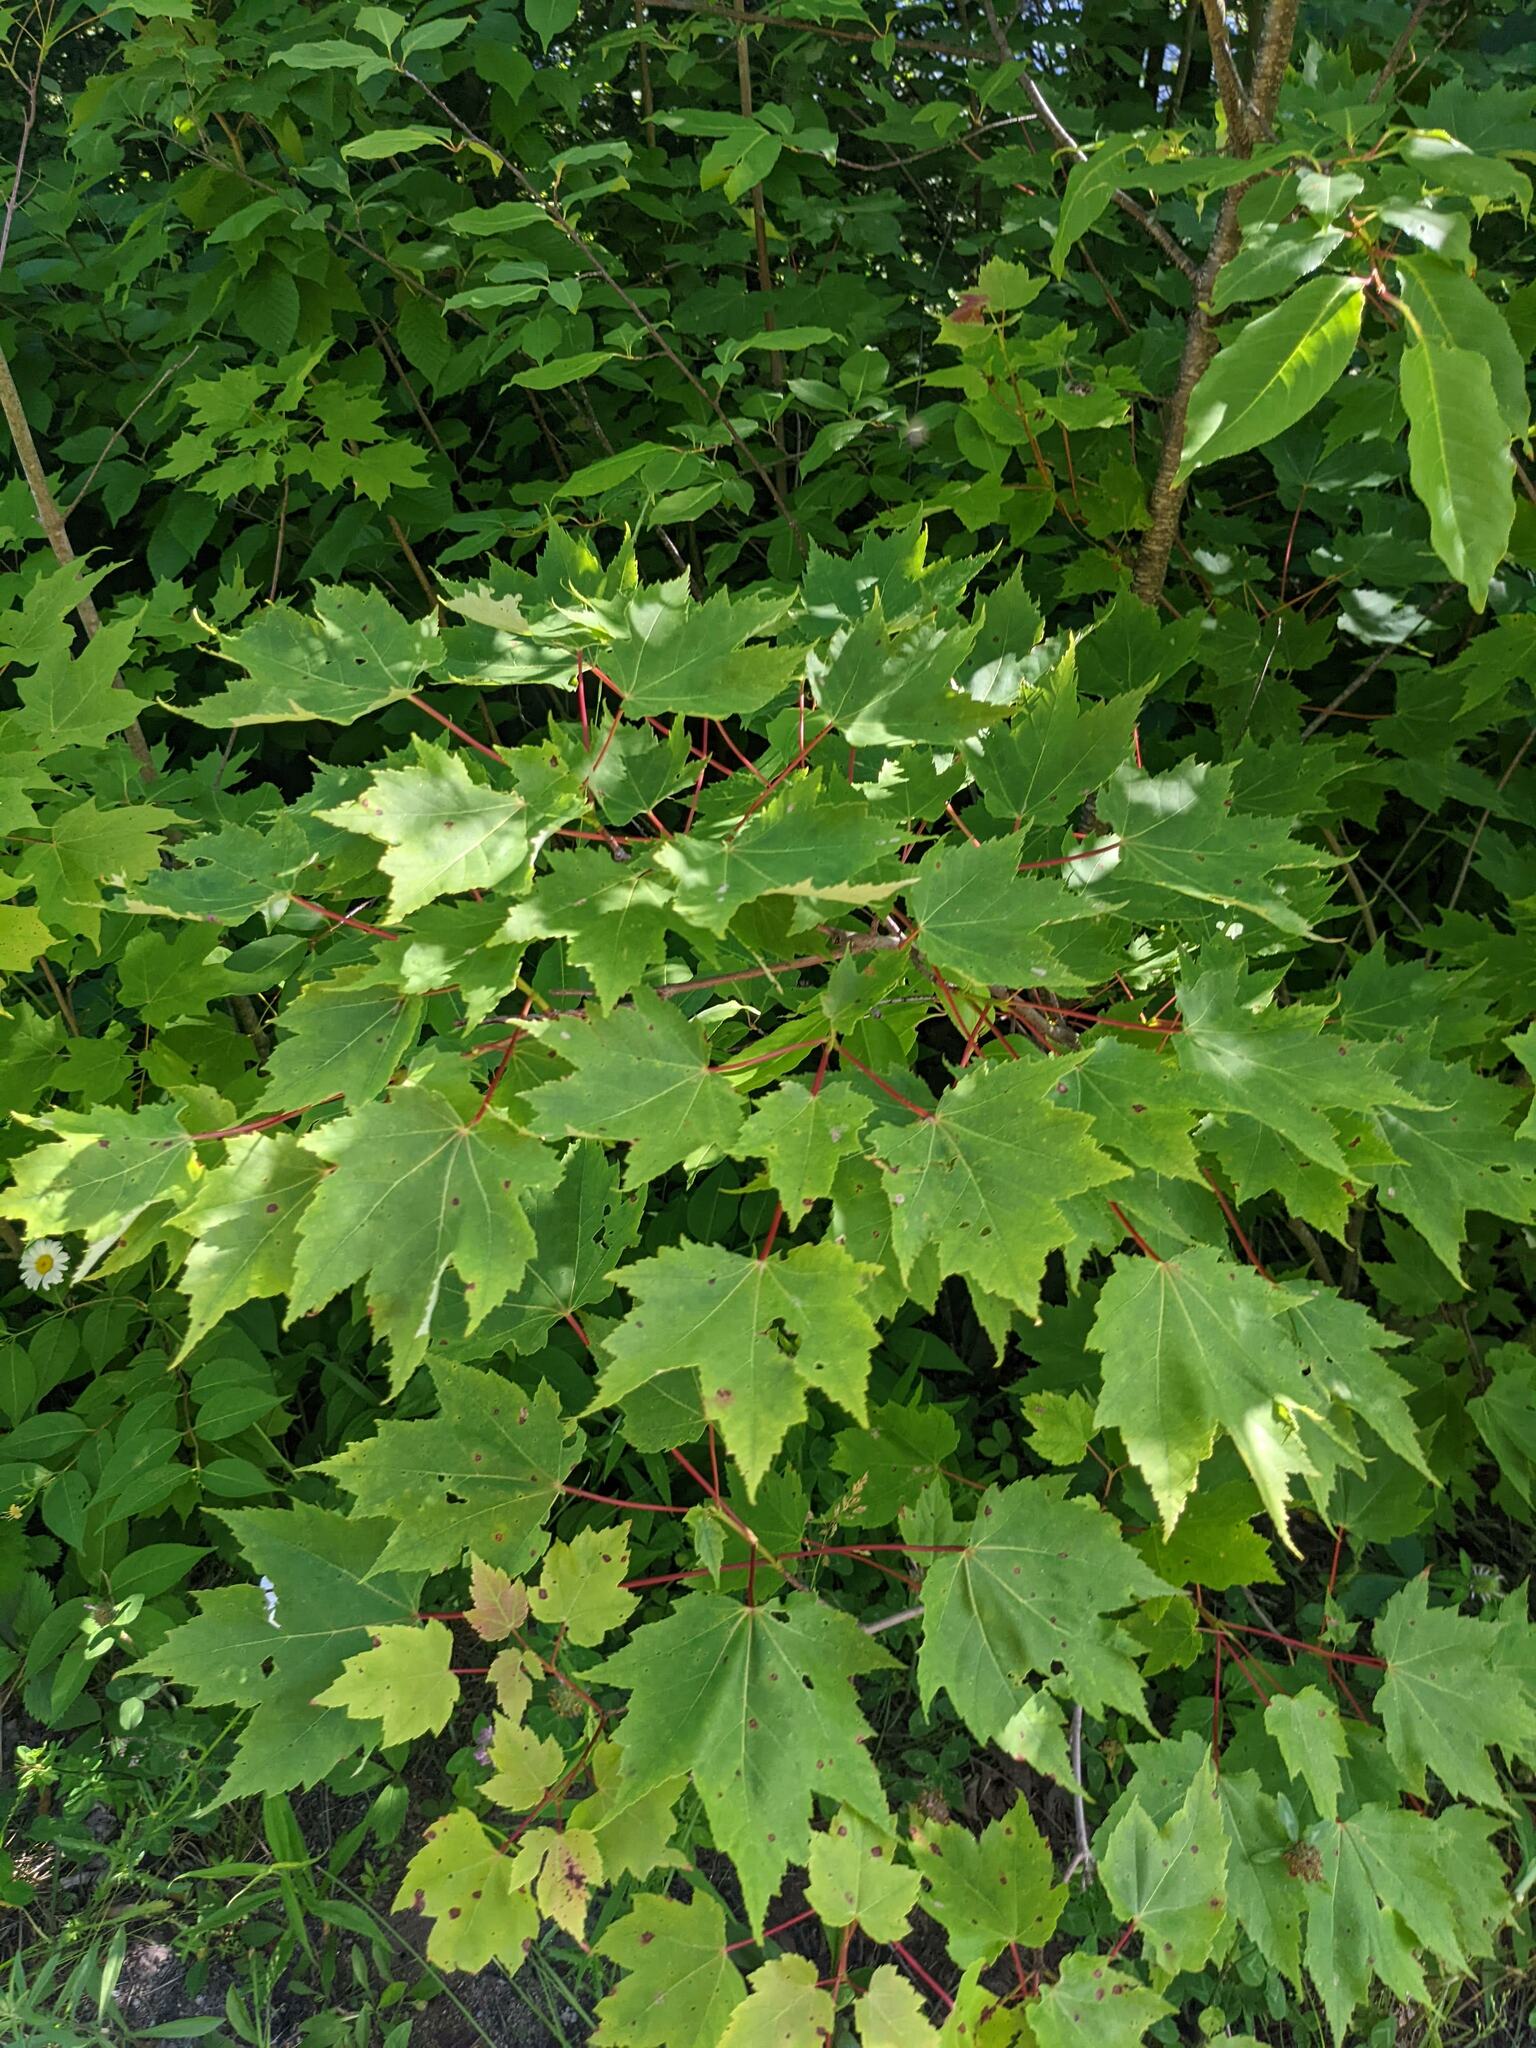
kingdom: Plantae
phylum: Tracheophyta
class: Magnoliopsida
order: Sapindales
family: Sapindaceae
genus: Acer
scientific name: Acer rubrum
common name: Red maple
